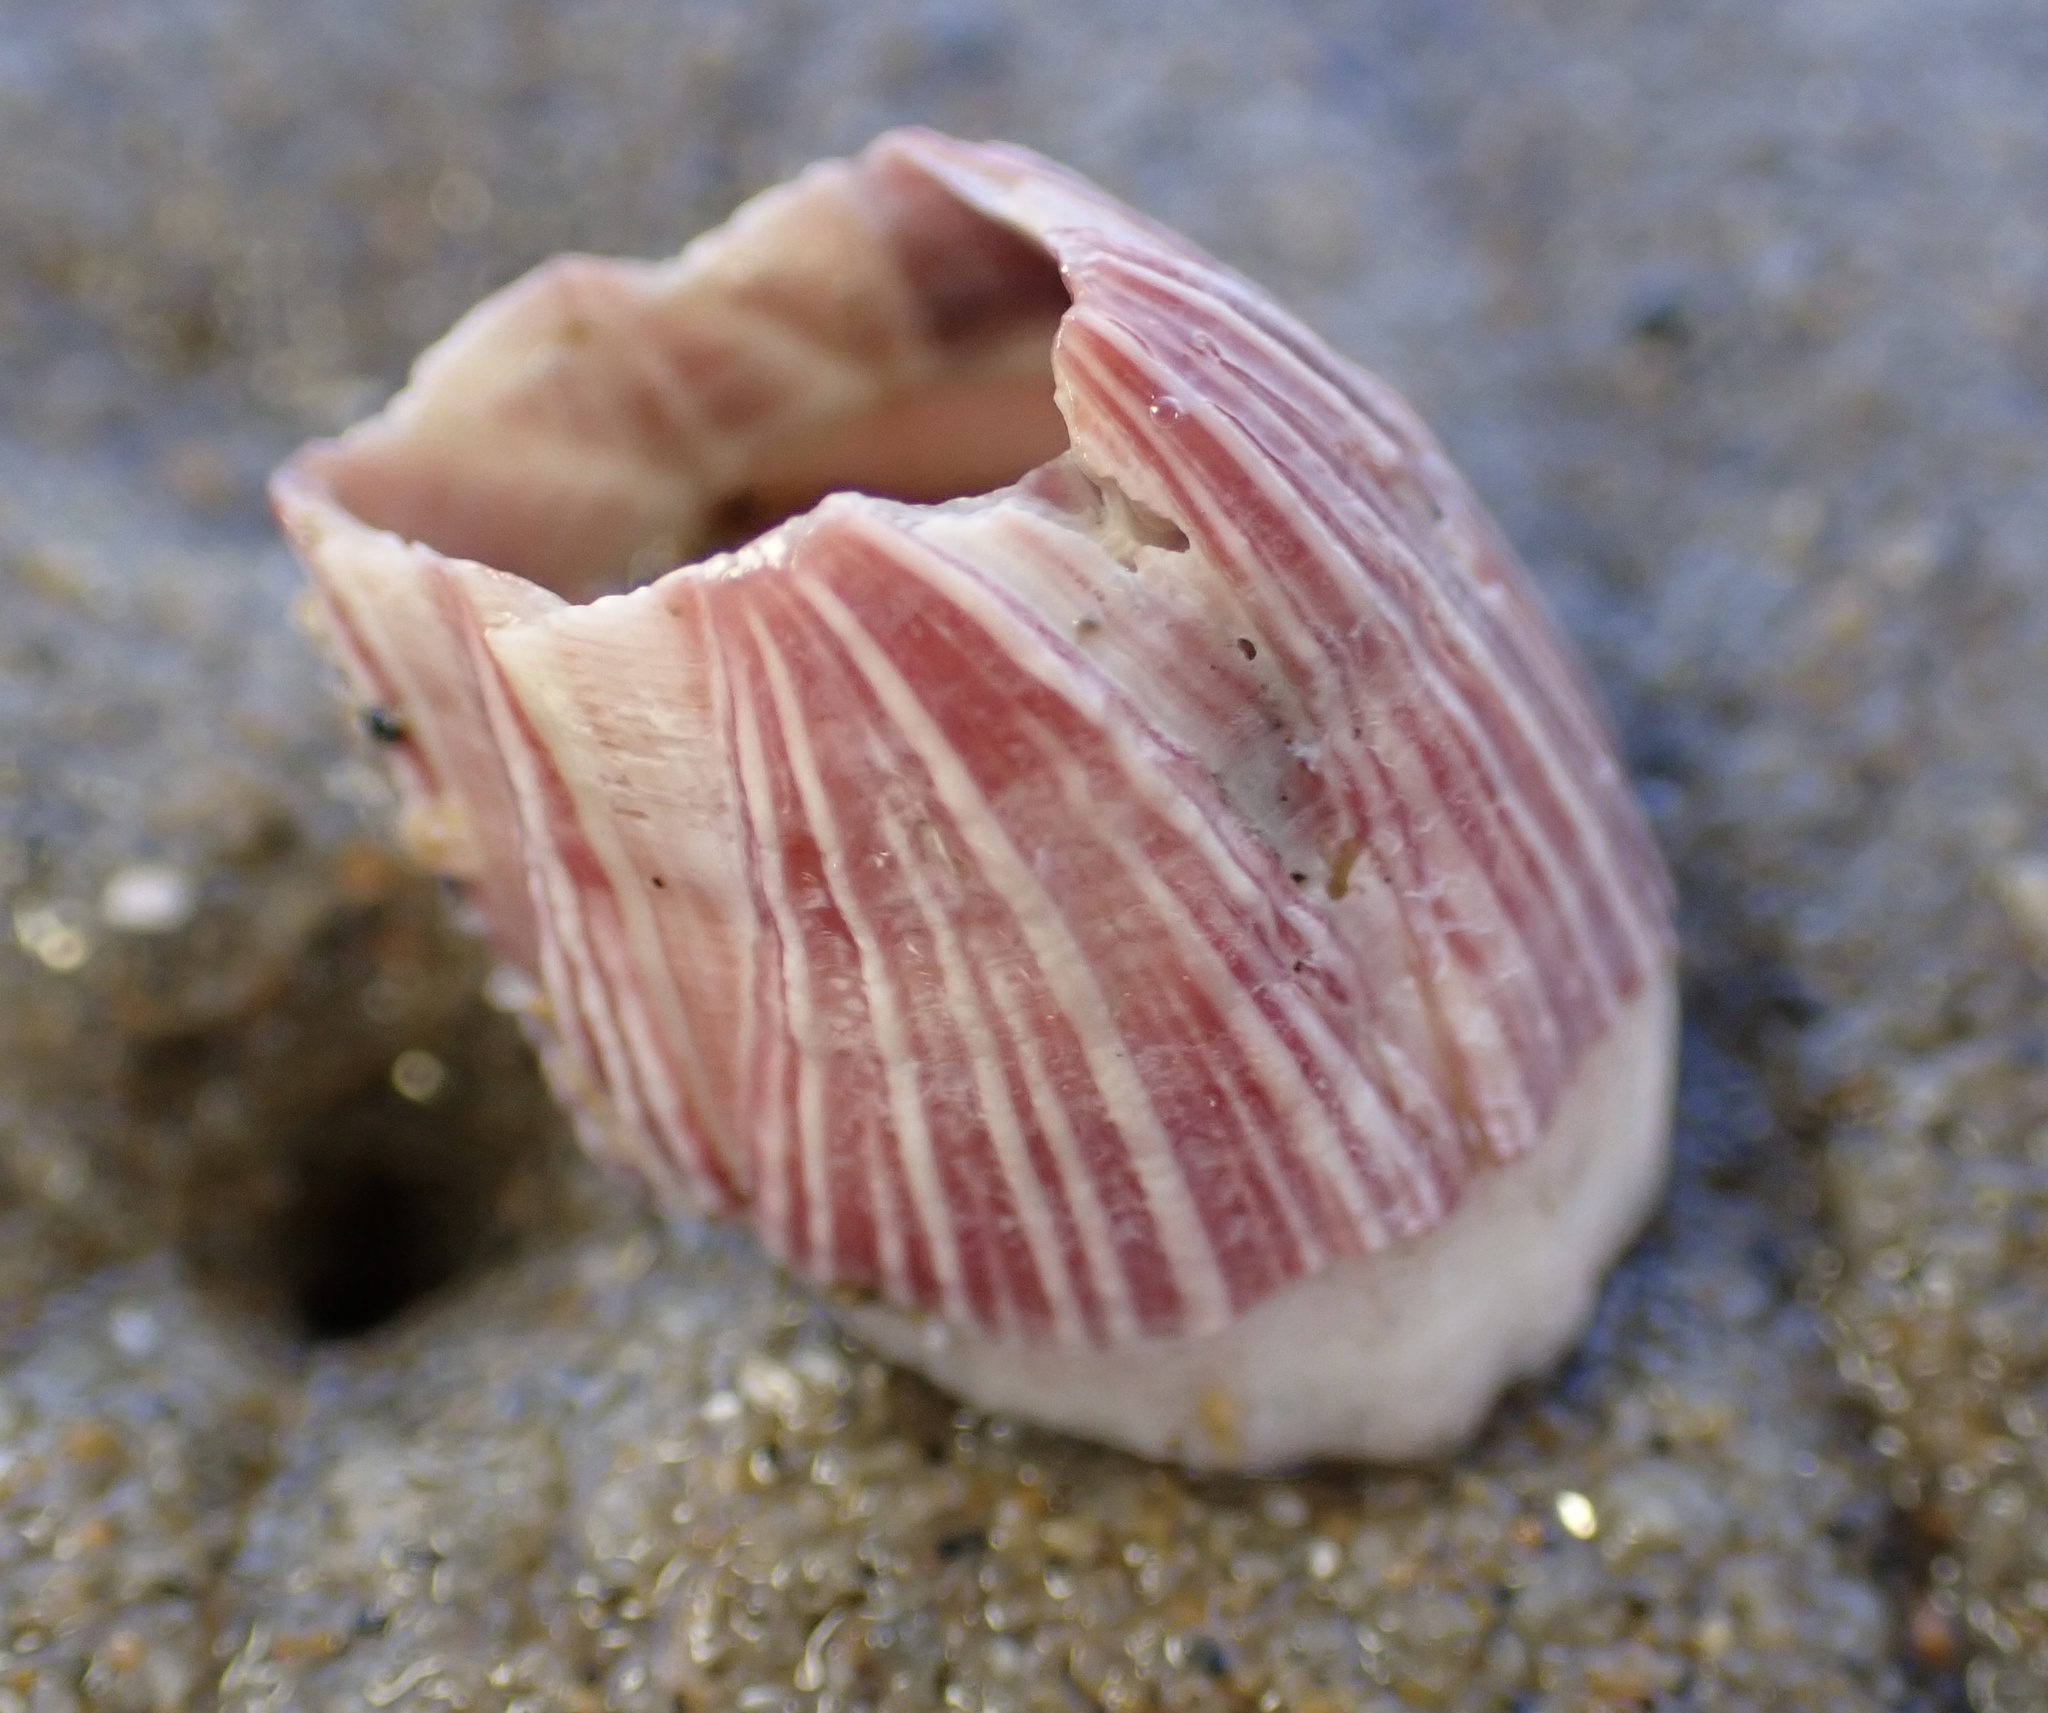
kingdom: Animalia
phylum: Arthropoda
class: Maxillopoda
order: Sessilia
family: Balanidae
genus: Megabalanus
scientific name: Megabalanus californicus
